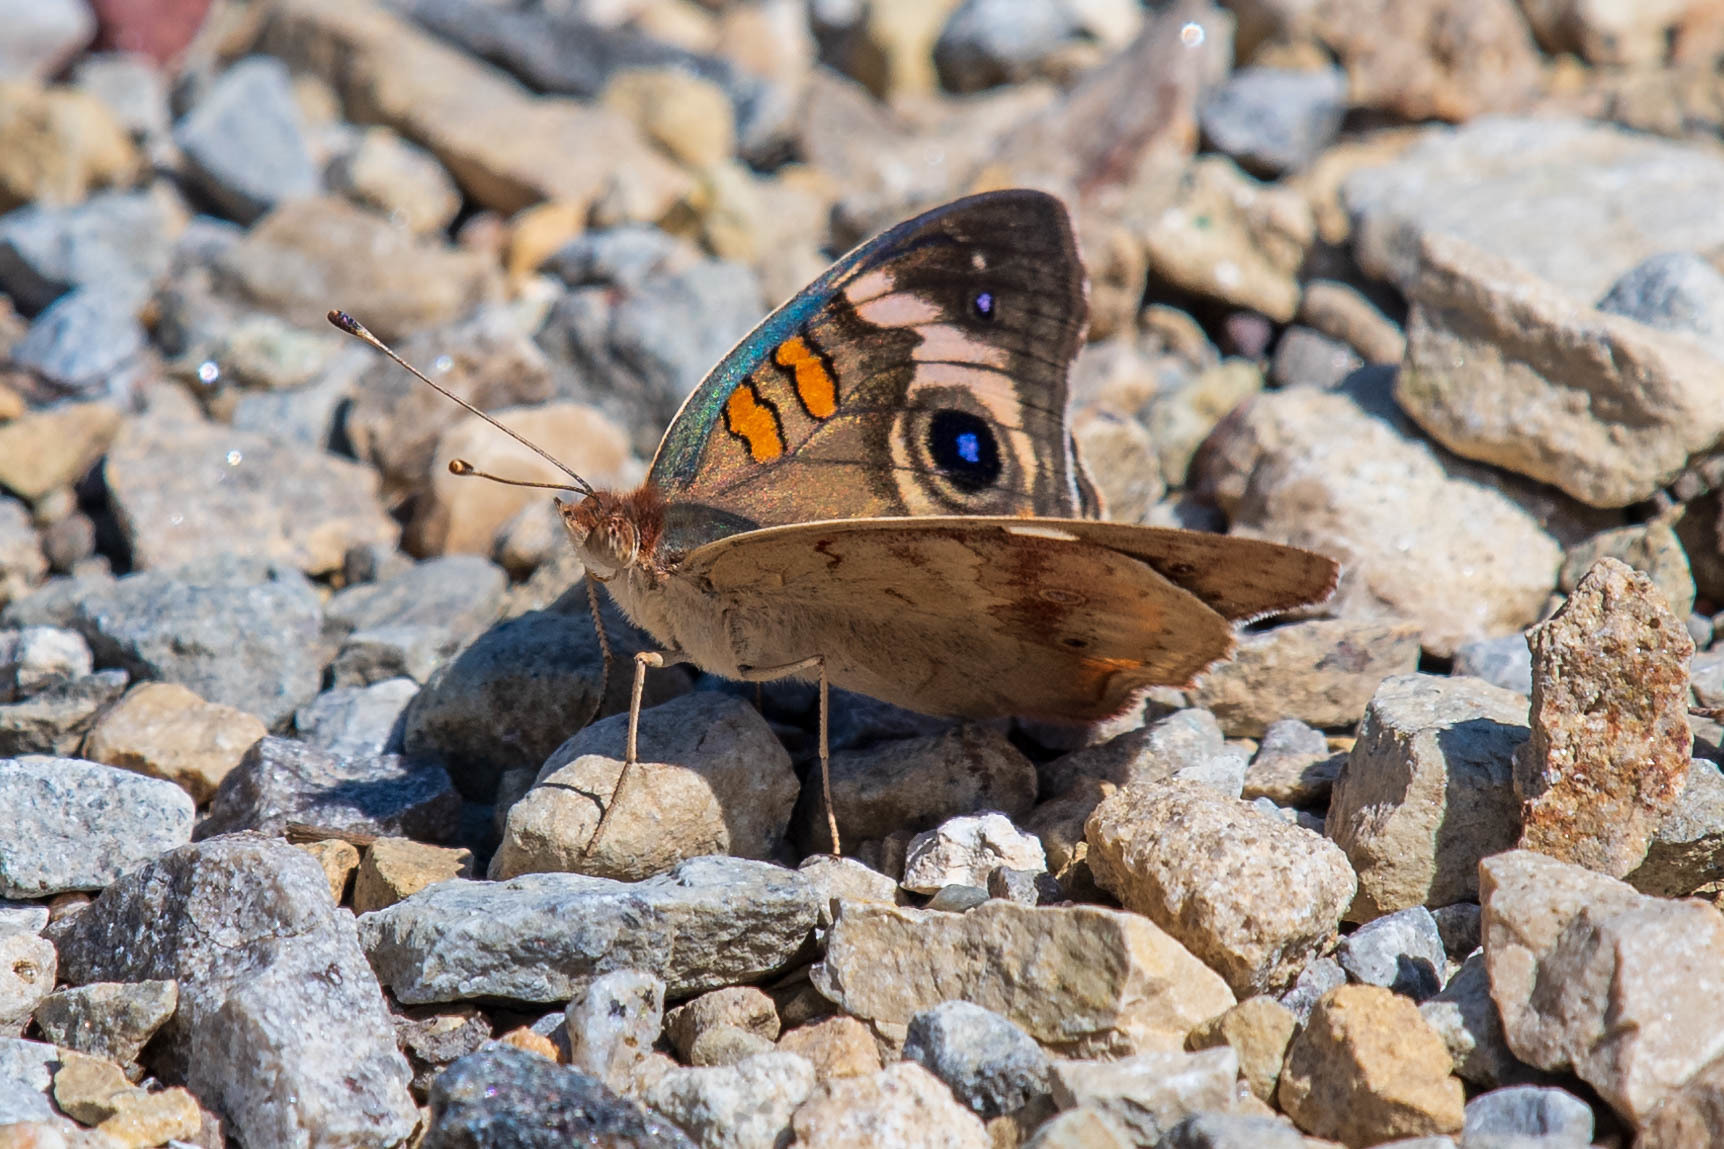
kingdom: Animalia
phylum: Arthropoda
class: Insecta
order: Lepidoptera
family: Nymphalidae
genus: Junonia
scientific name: Junonia coenia
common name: Common buckeye
